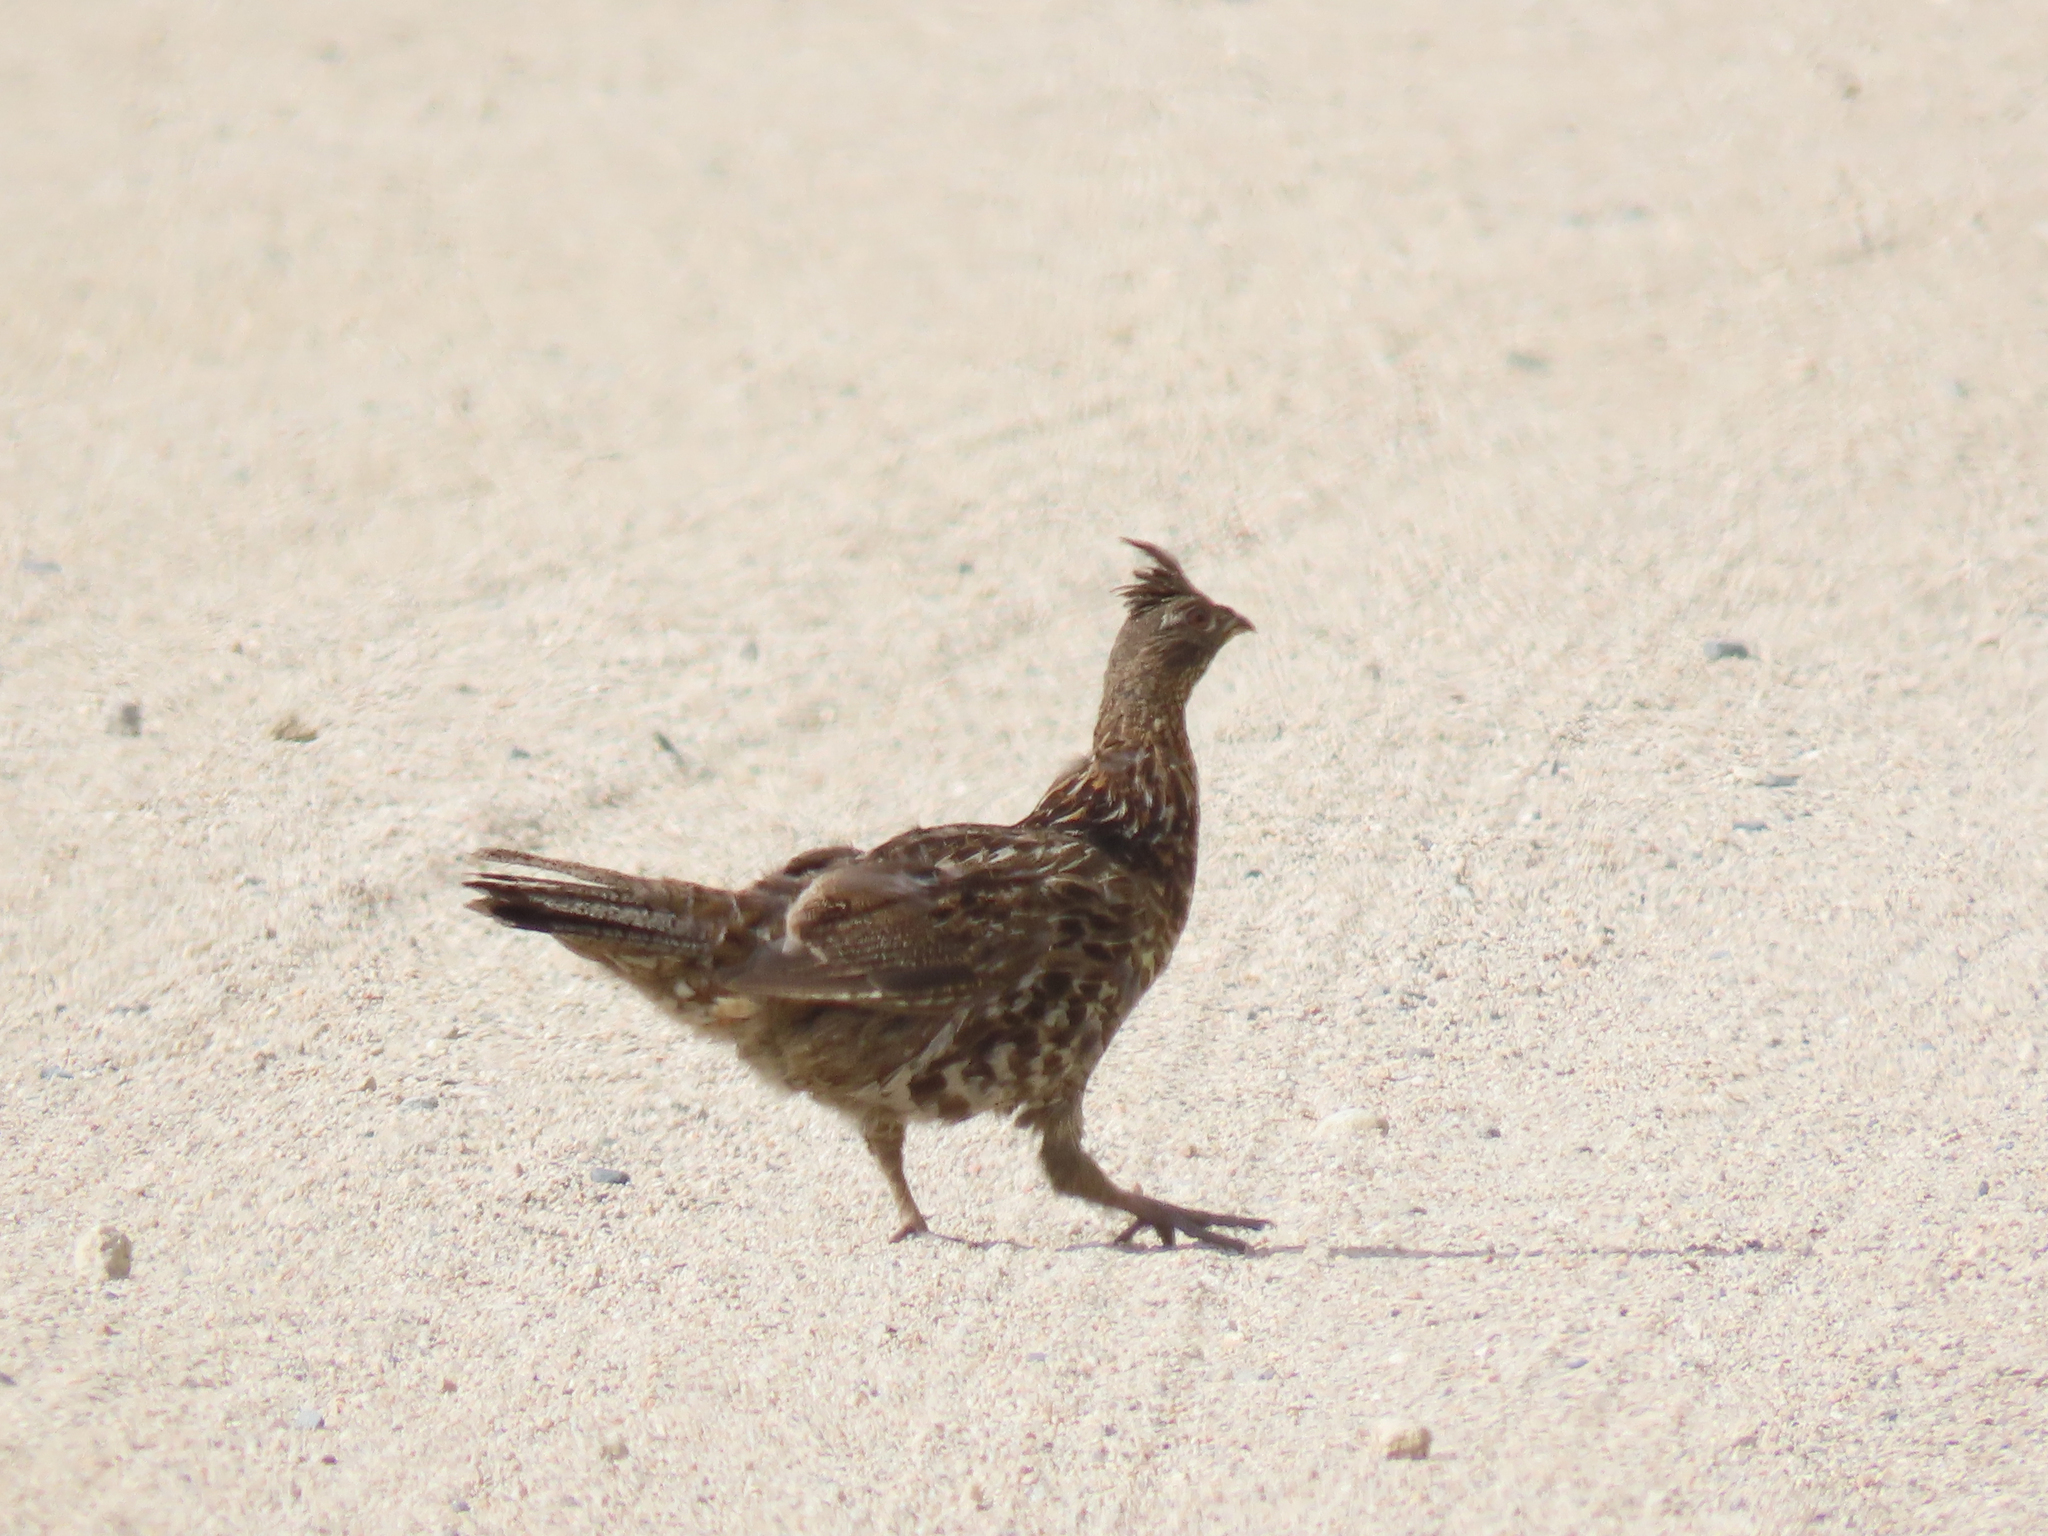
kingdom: Animalia
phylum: Chordata
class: Aves
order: Galliformes
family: Phasianidae
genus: Bonasa
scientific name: Bonasa umbellus
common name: Ruffed grouse
